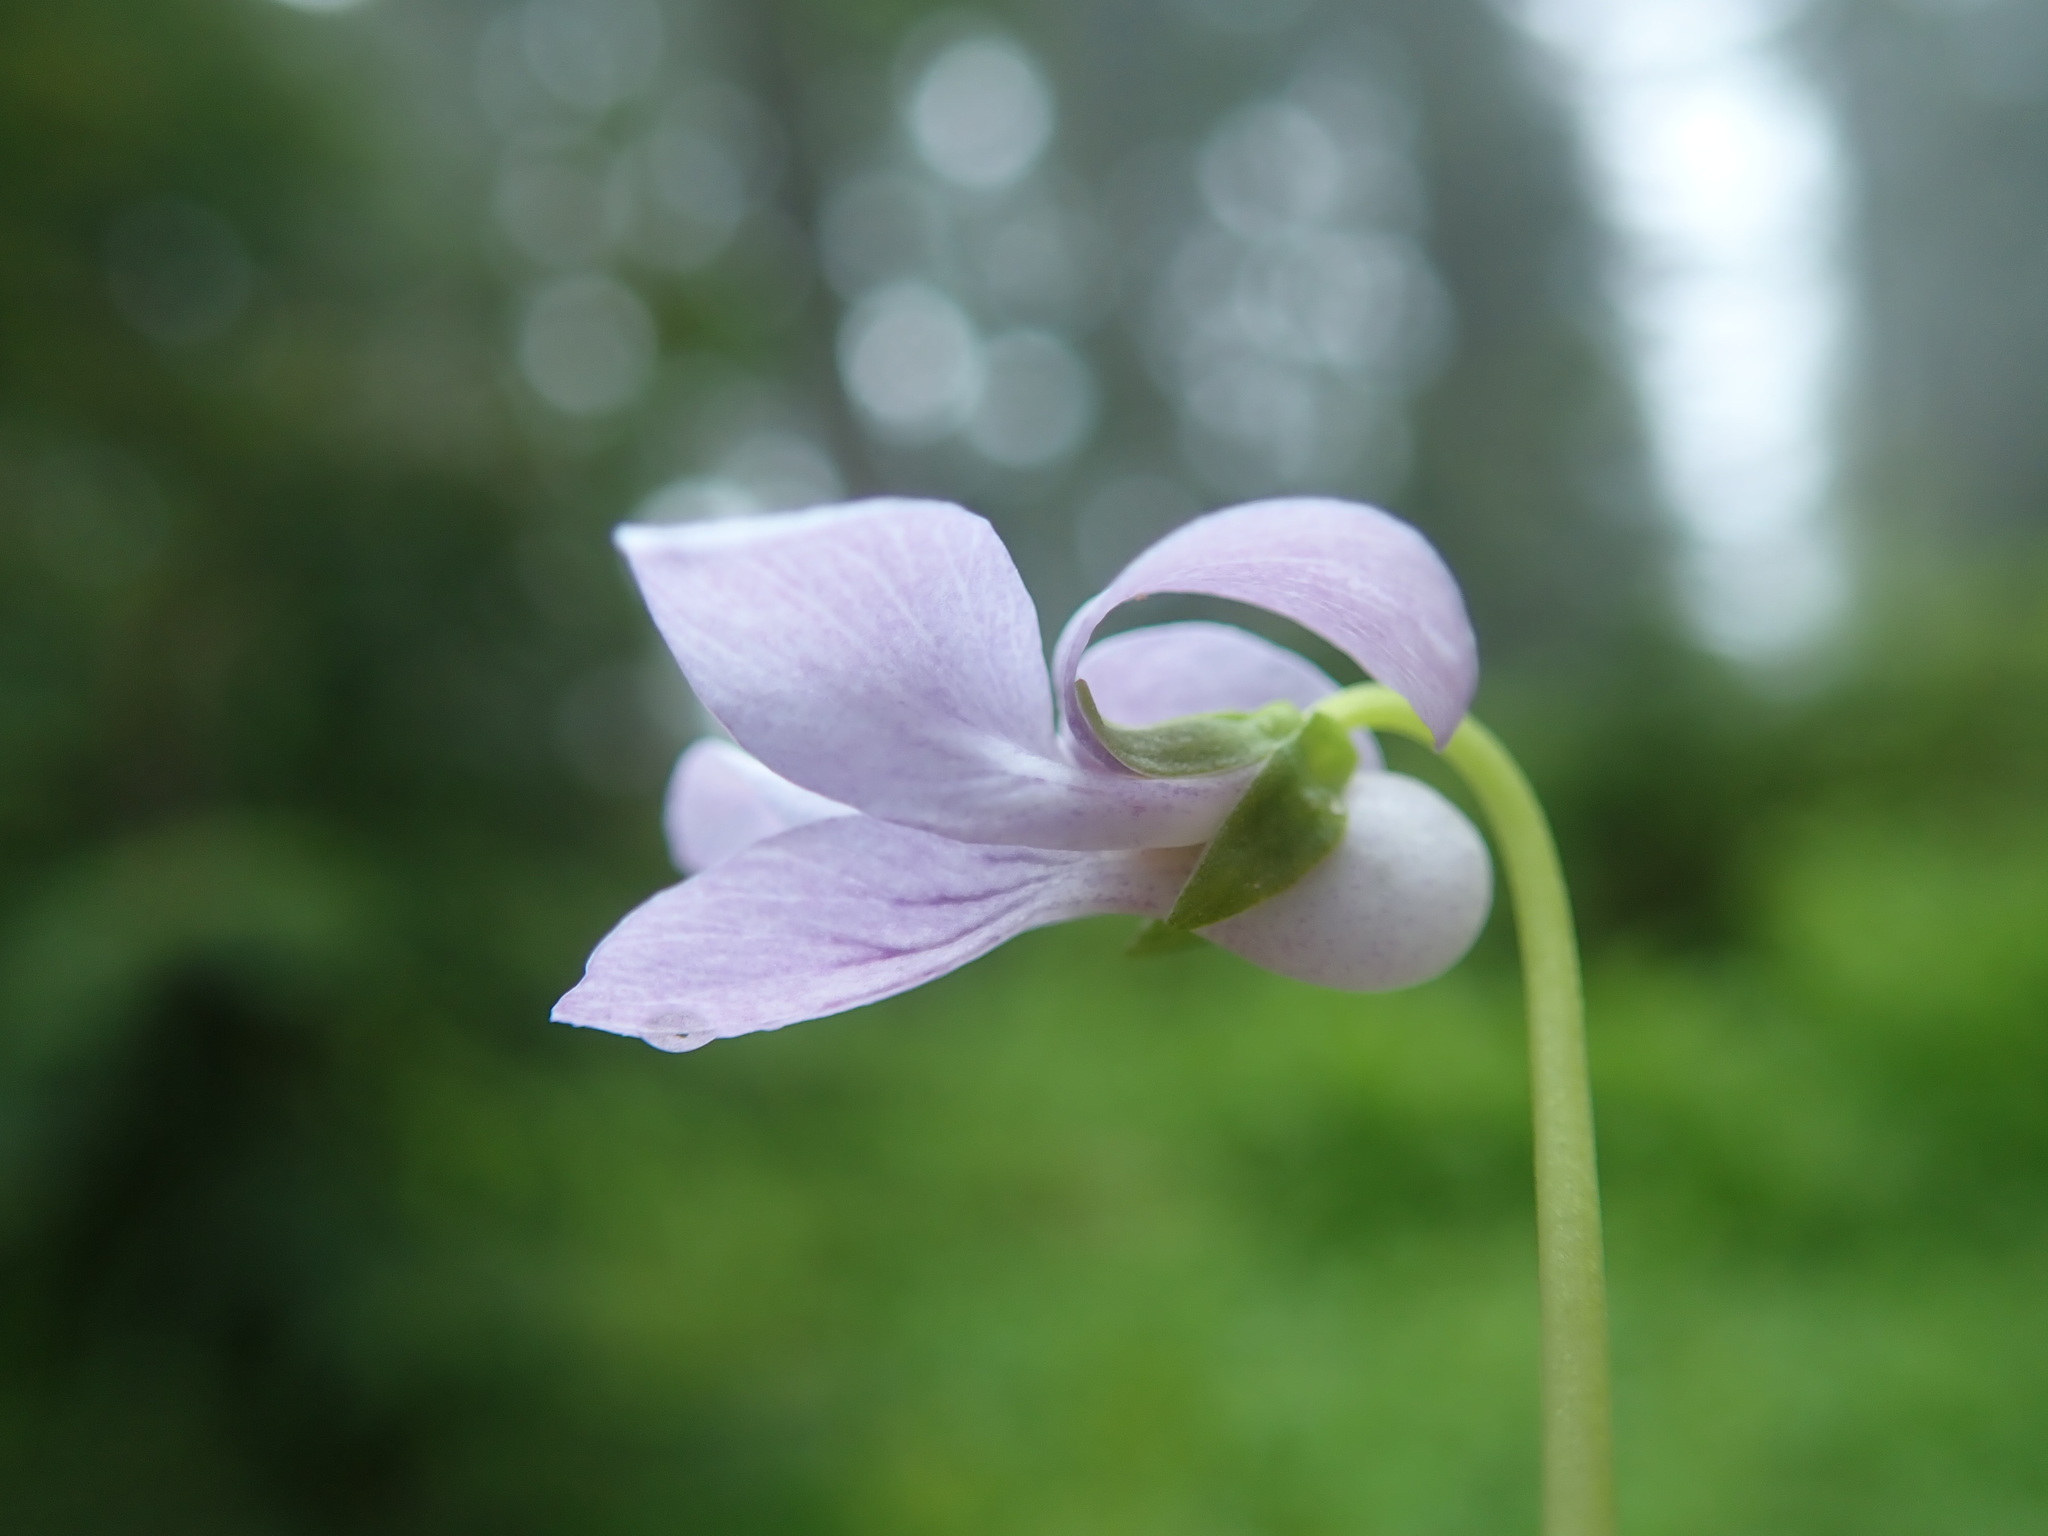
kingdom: Plantae
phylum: Tracheophyta
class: Magnoliopsida
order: Malpighiales
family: Violaceae
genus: Viola
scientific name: Viola palustris
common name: Marsh violet
